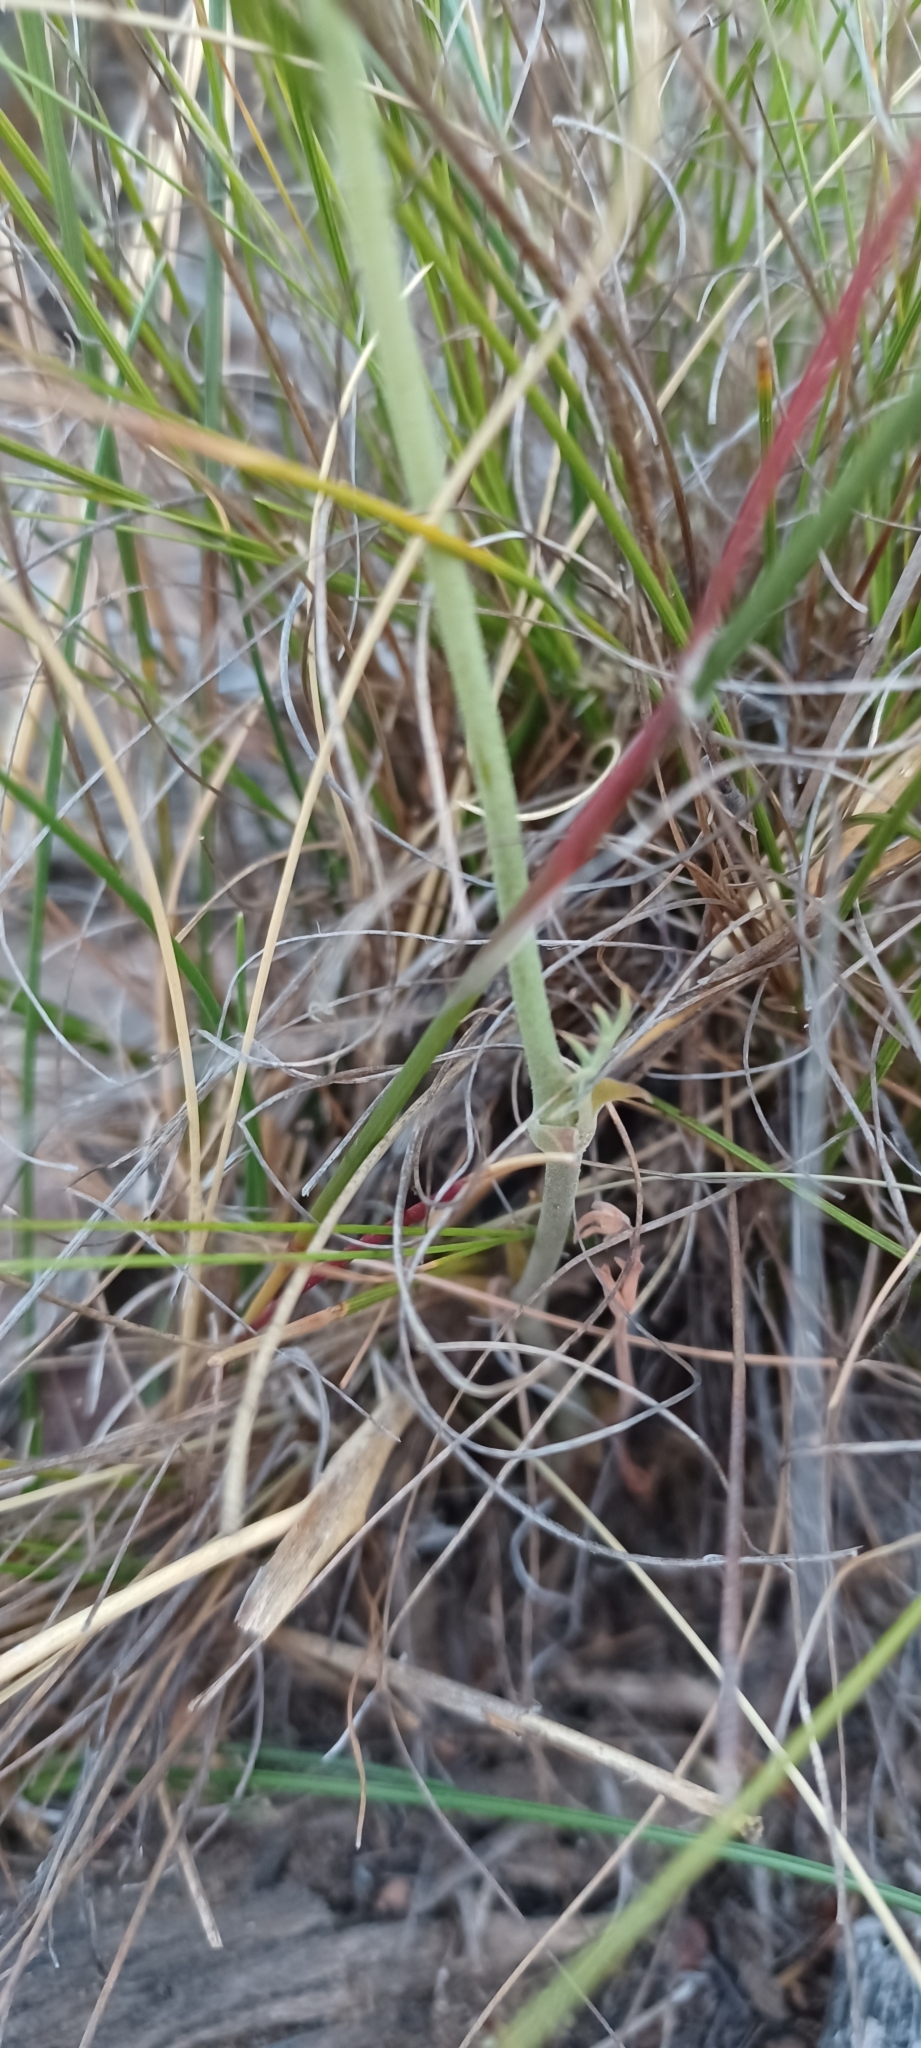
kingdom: Plantae
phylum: Tracheophyta
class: Magnoliopsida
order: Geraniales
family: Geraniaceae
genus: Pelargonium
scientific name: Pelargonium pillansii
